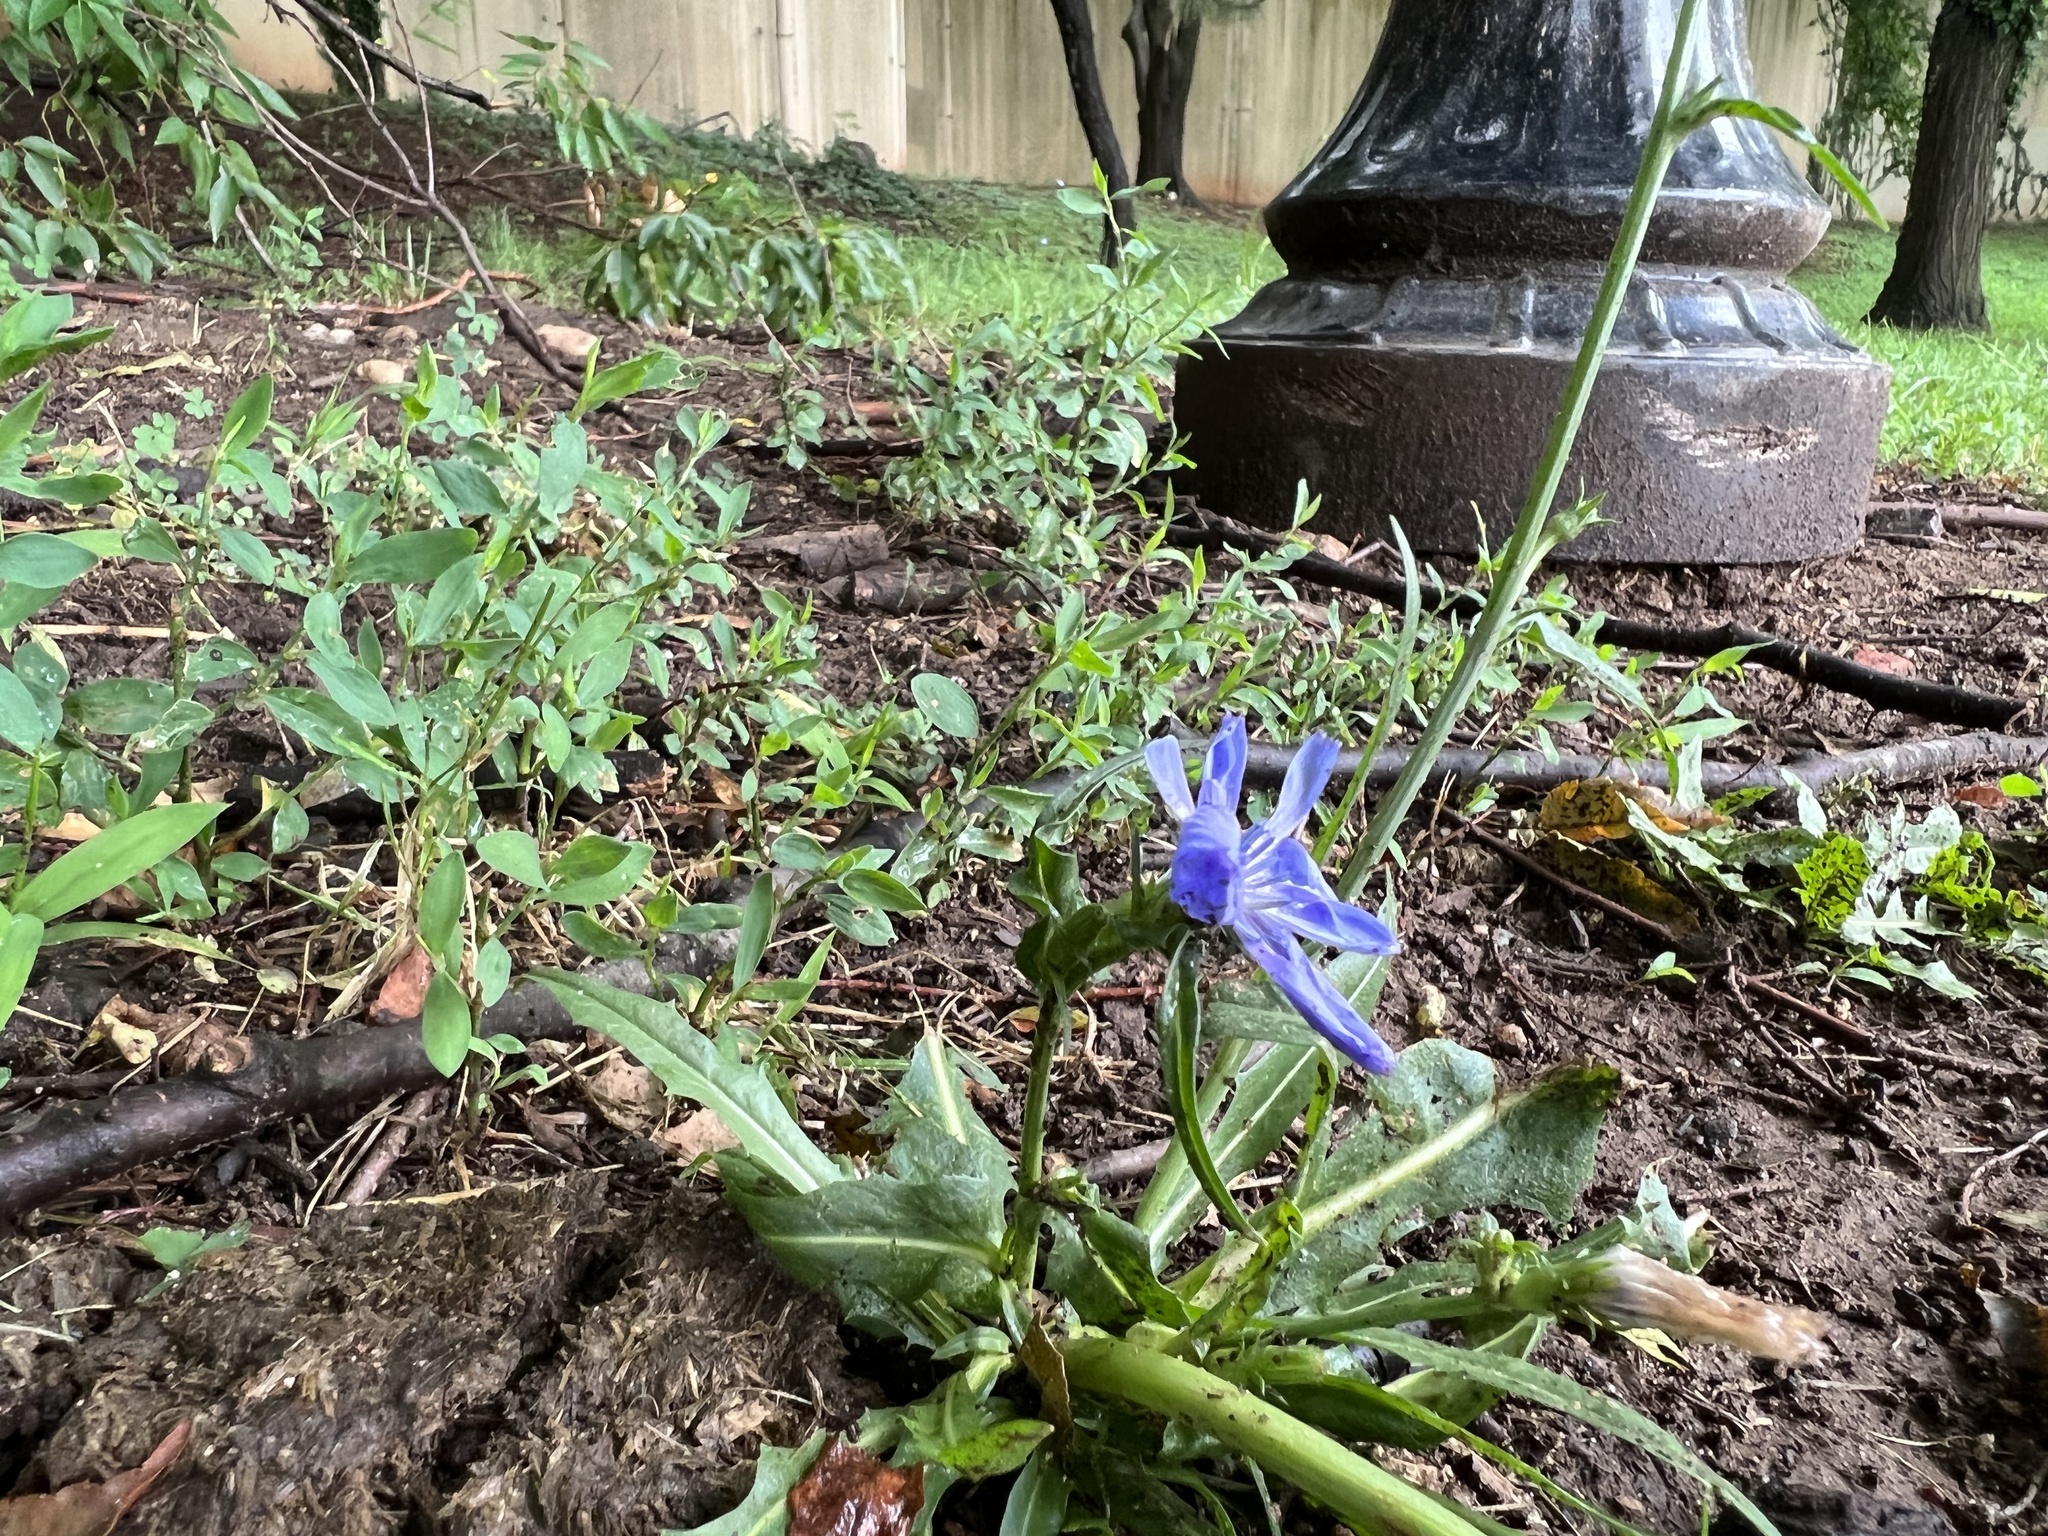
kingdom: Plantae
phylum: Tracheophyta
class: Magnoliopsida
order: Asterales
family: Asteraceae
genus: Cichorium
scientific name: Cichorium intybus
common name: Chicory
